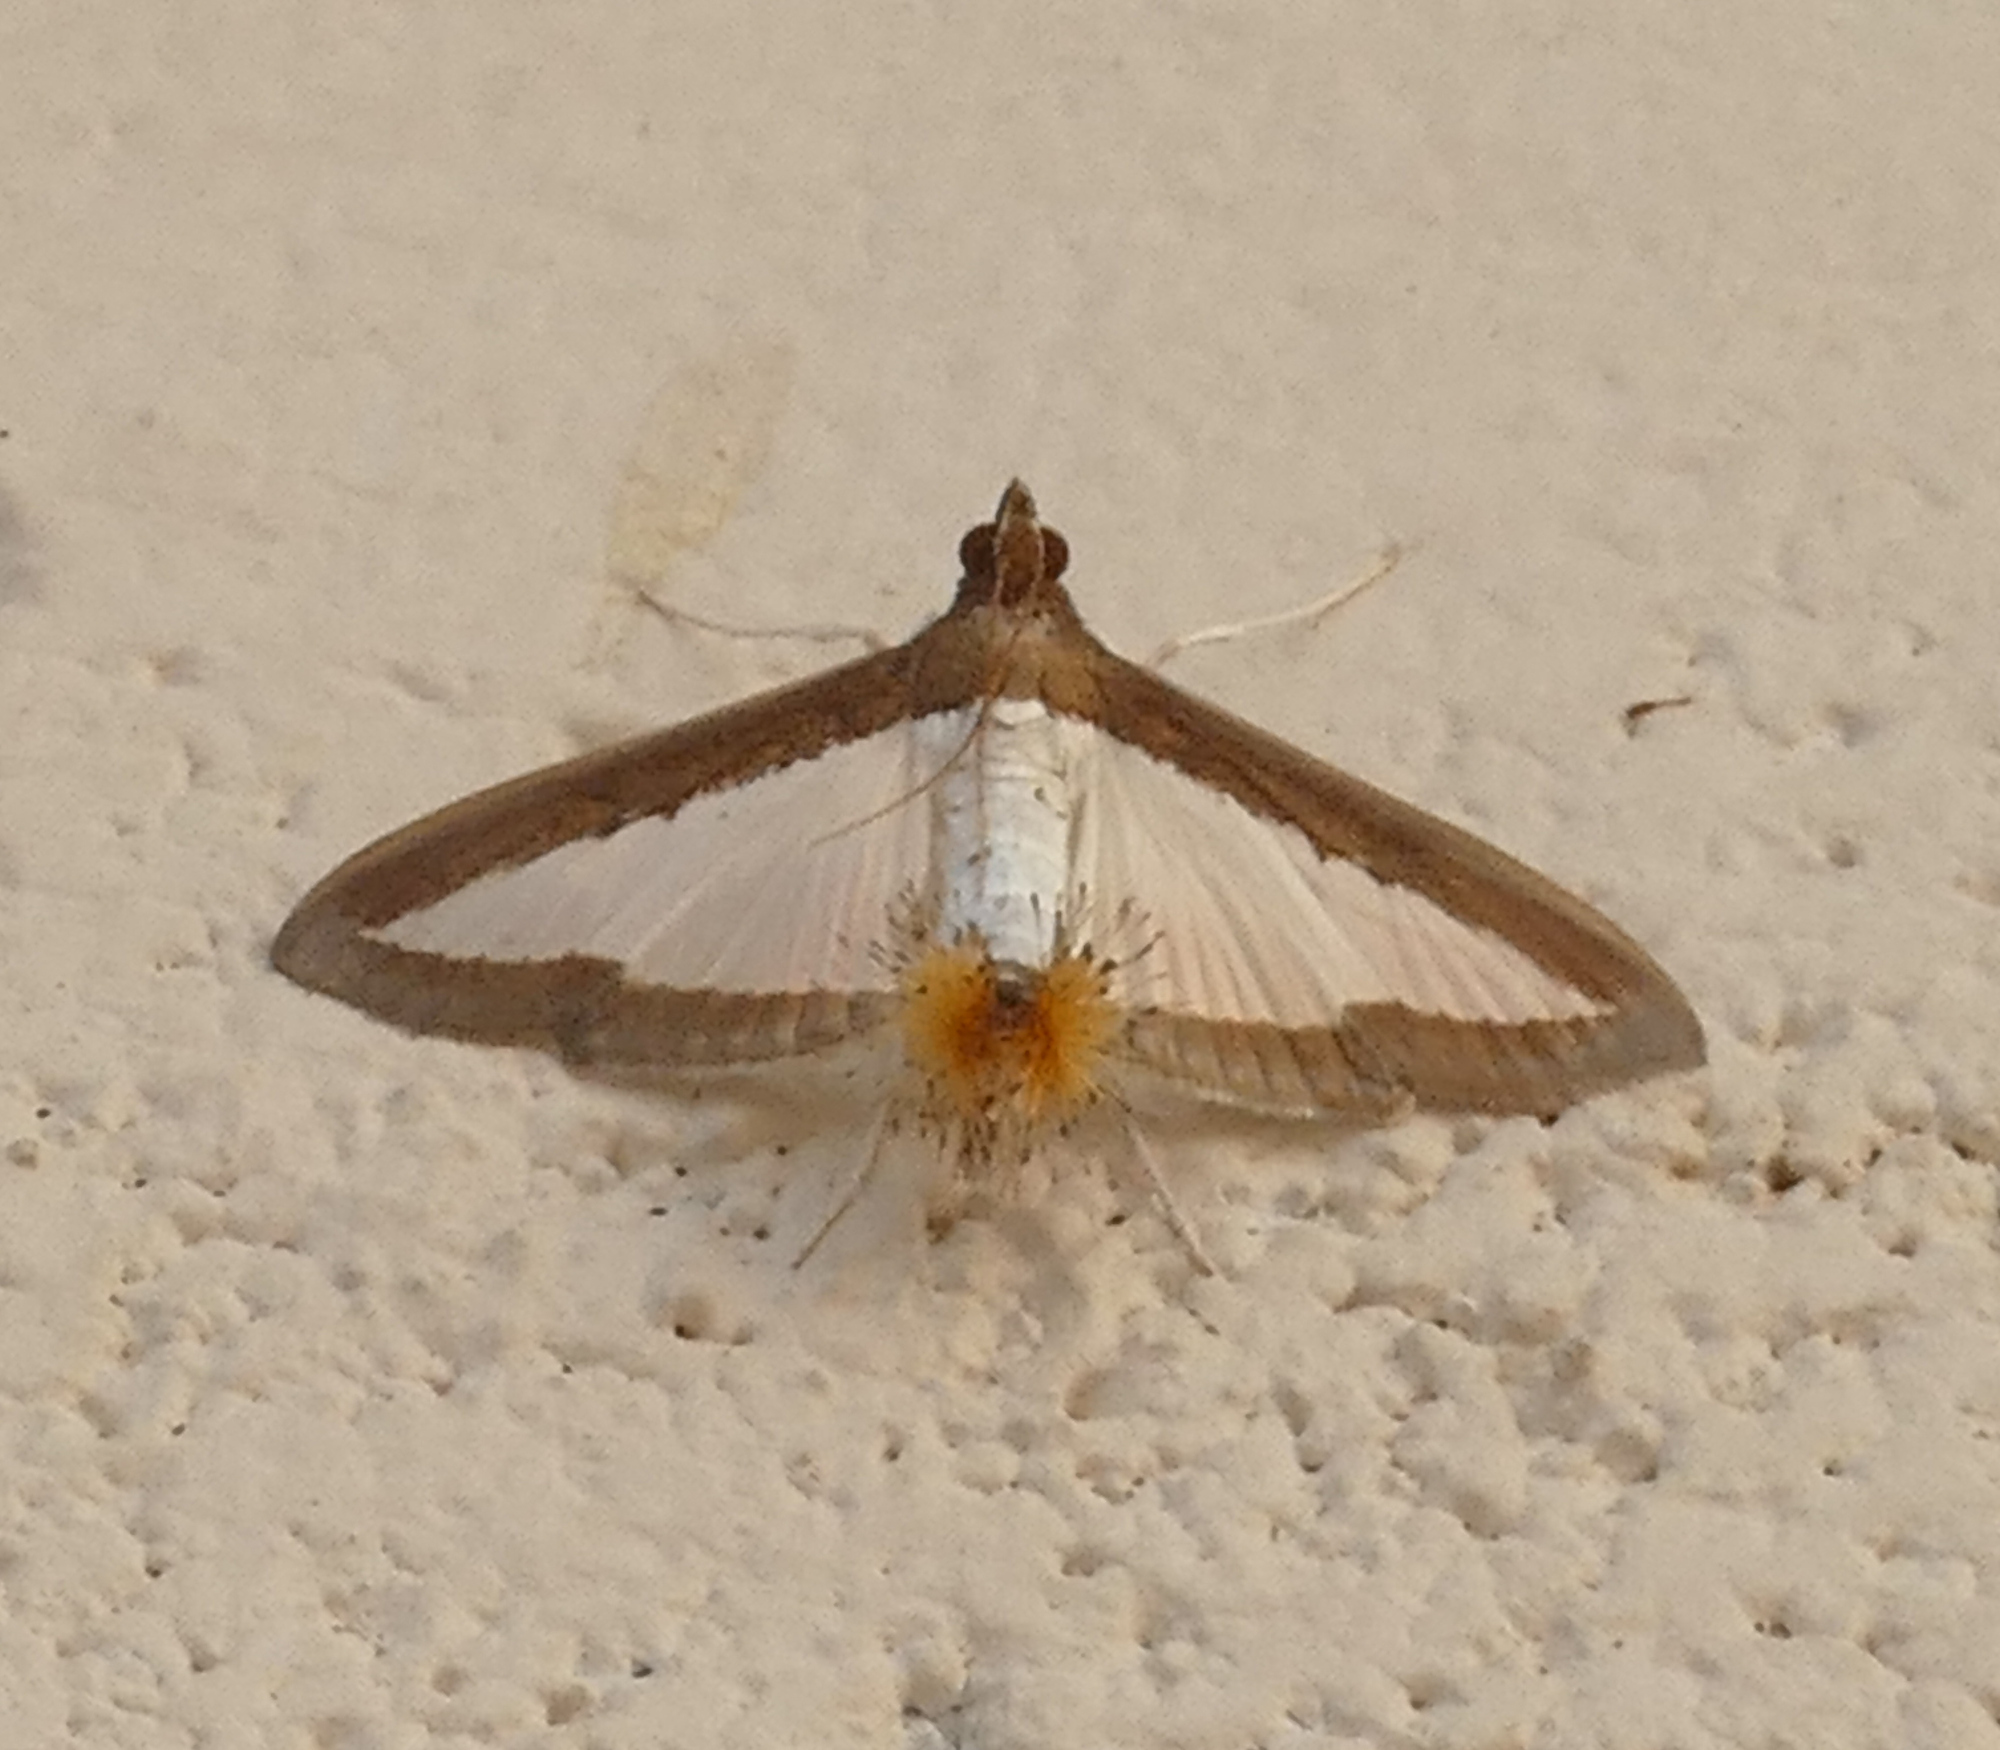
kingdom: Animalia
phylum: Arthropoda
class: Insecta
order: Lepidoptera
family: Crambidae
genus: Diaphania
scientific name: Diaphania hyalinata
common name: Melonworm
